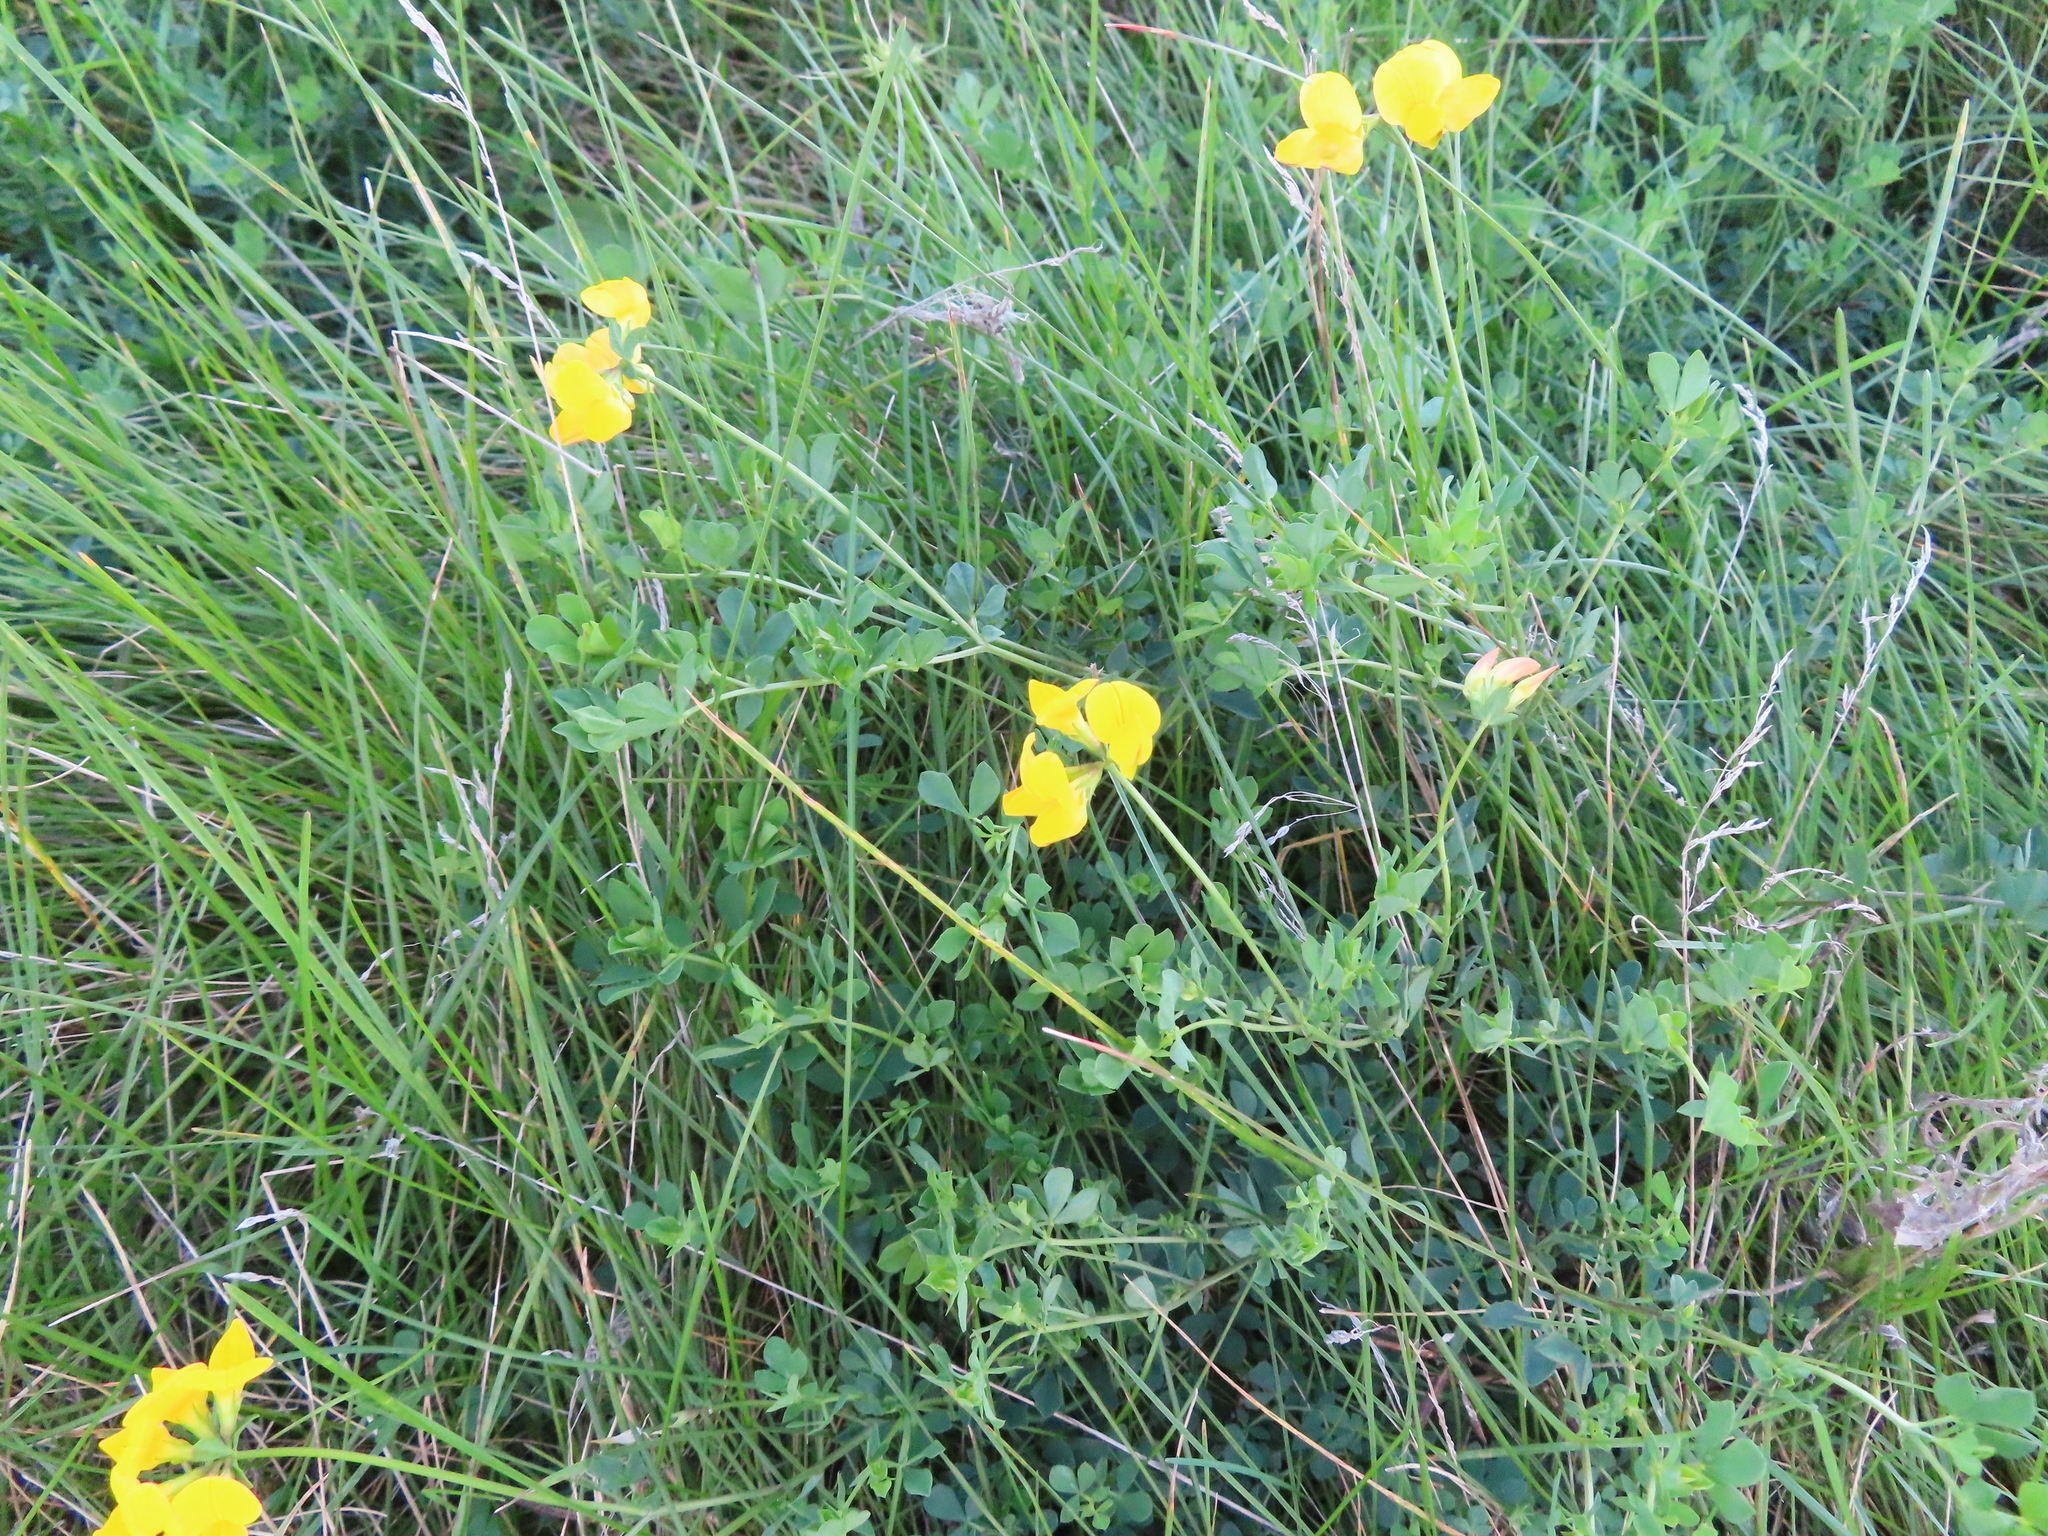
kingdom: Plantae
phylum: Tracheophyta
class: Magnoliopsida
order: Fabales
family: Fabaceae
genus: Lotus
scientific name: Lotus corniculatus
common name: Common bird's-foot-trefoil
